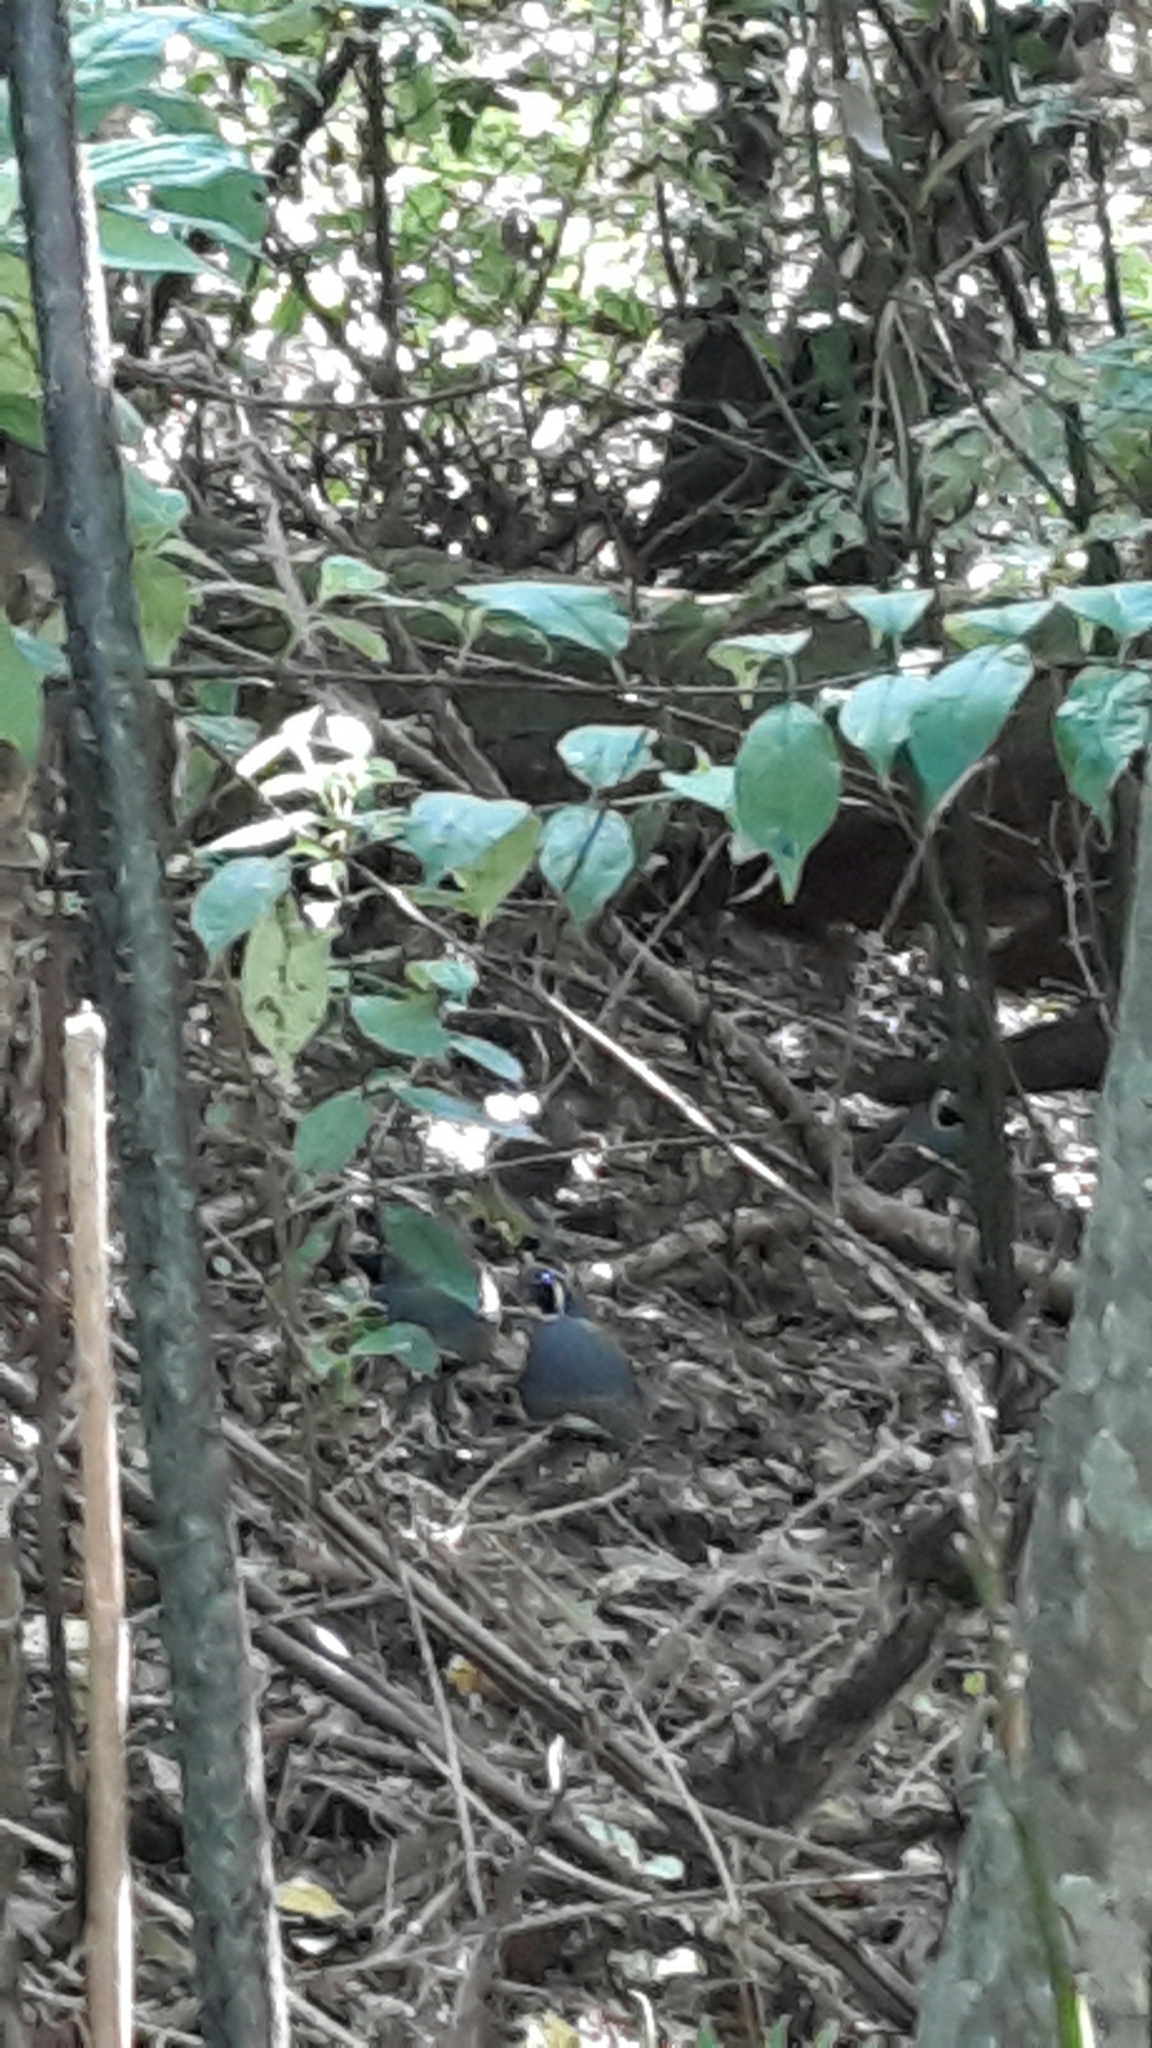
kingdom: Animalia
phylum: Chordata
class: Aves
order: Galliformes
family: Odontophoridae
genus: Callipepla
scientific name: Callipepla californica
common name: California quail
